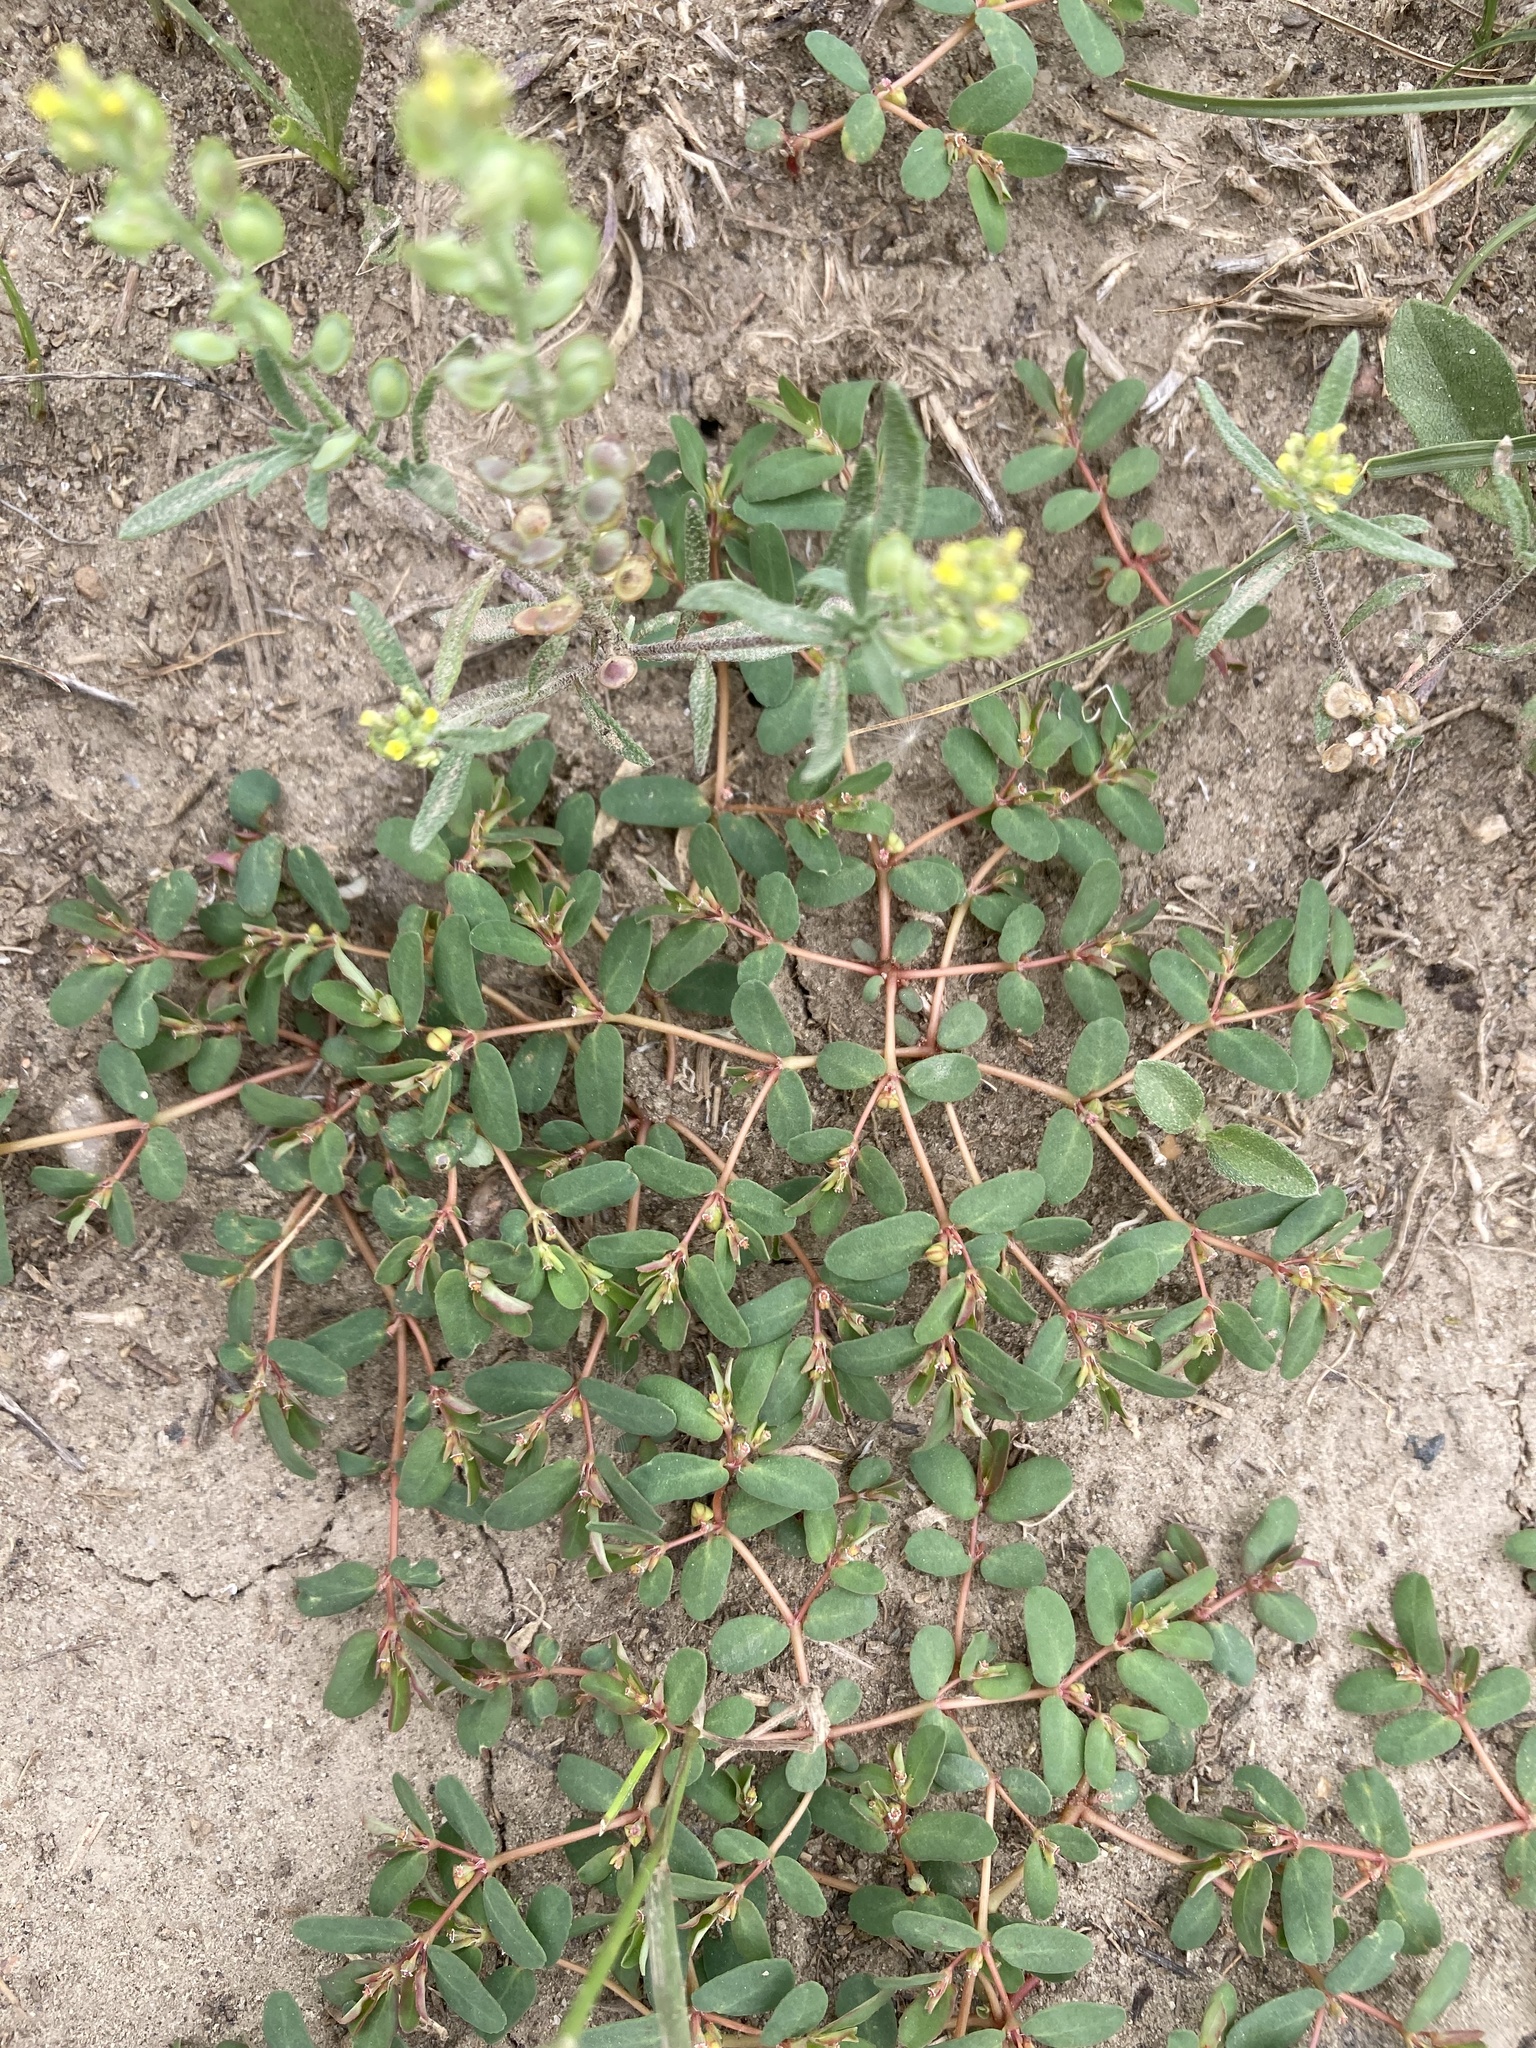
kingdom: Plantae
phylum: Tracheophyta
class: Magnoliopsida
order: Malpighiales
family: Euphorbiaceae
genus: Euphorbia
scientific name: Euphorbia glyptosperma
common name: Corrugate-seeded spurge
